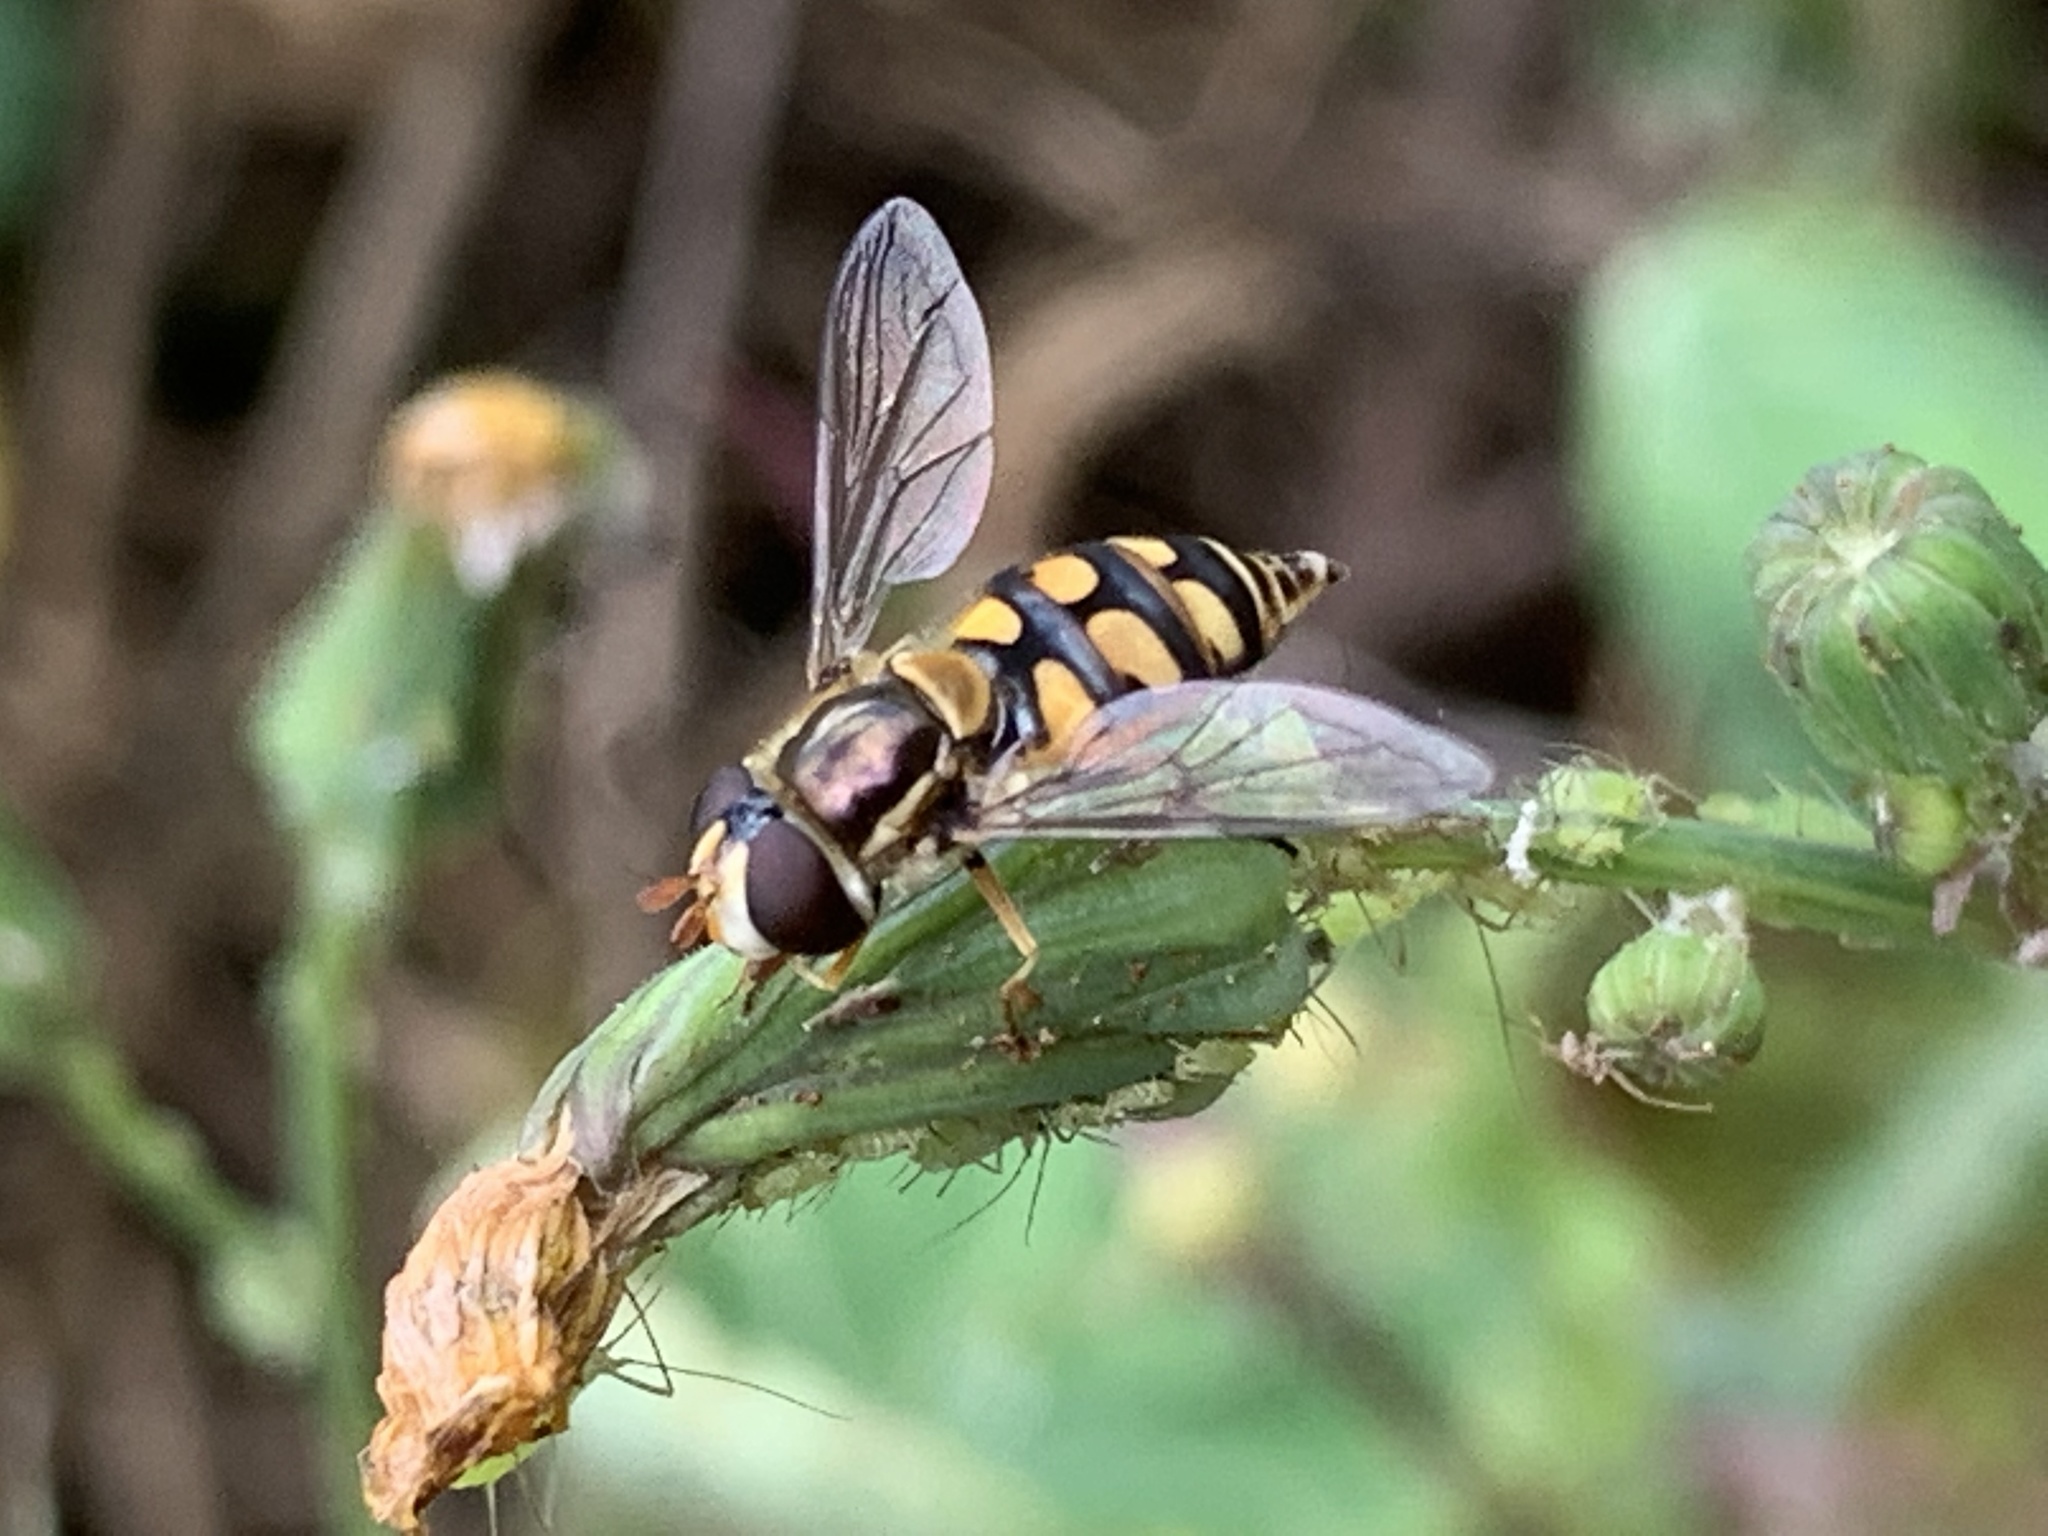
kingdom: Animalia
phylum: Arthropoda
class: Insecta
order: Diptera
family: Syrphidae
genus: Simosyrphus
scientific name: Simosyrphus grandicornis
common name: Hoverfly
